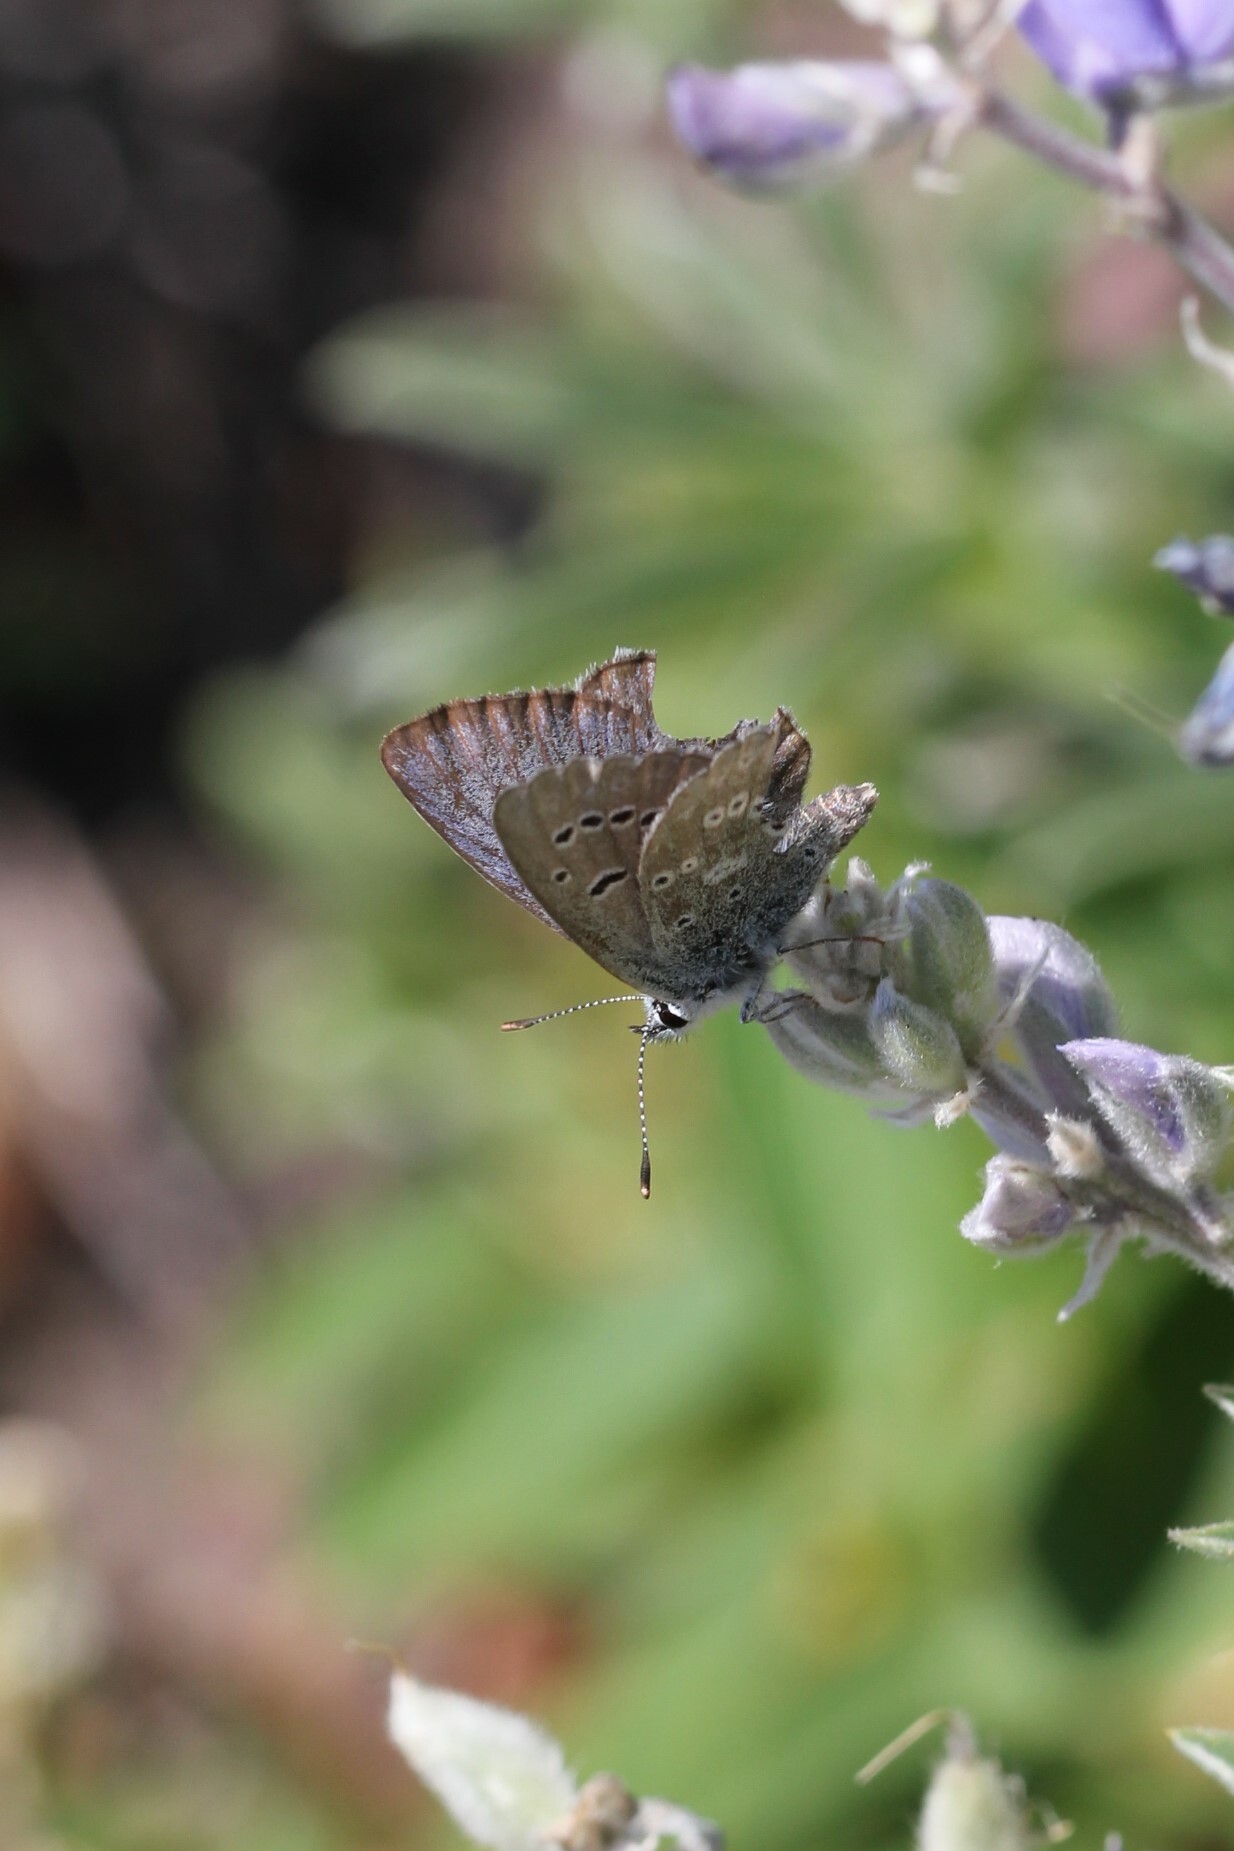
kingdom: Animalia
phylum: Arthropoda
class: Insecta
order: Lepidoptera
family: Lycaenidae
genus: Icaricia
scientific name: Icaricia icarioides
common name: Boisduval's blue
